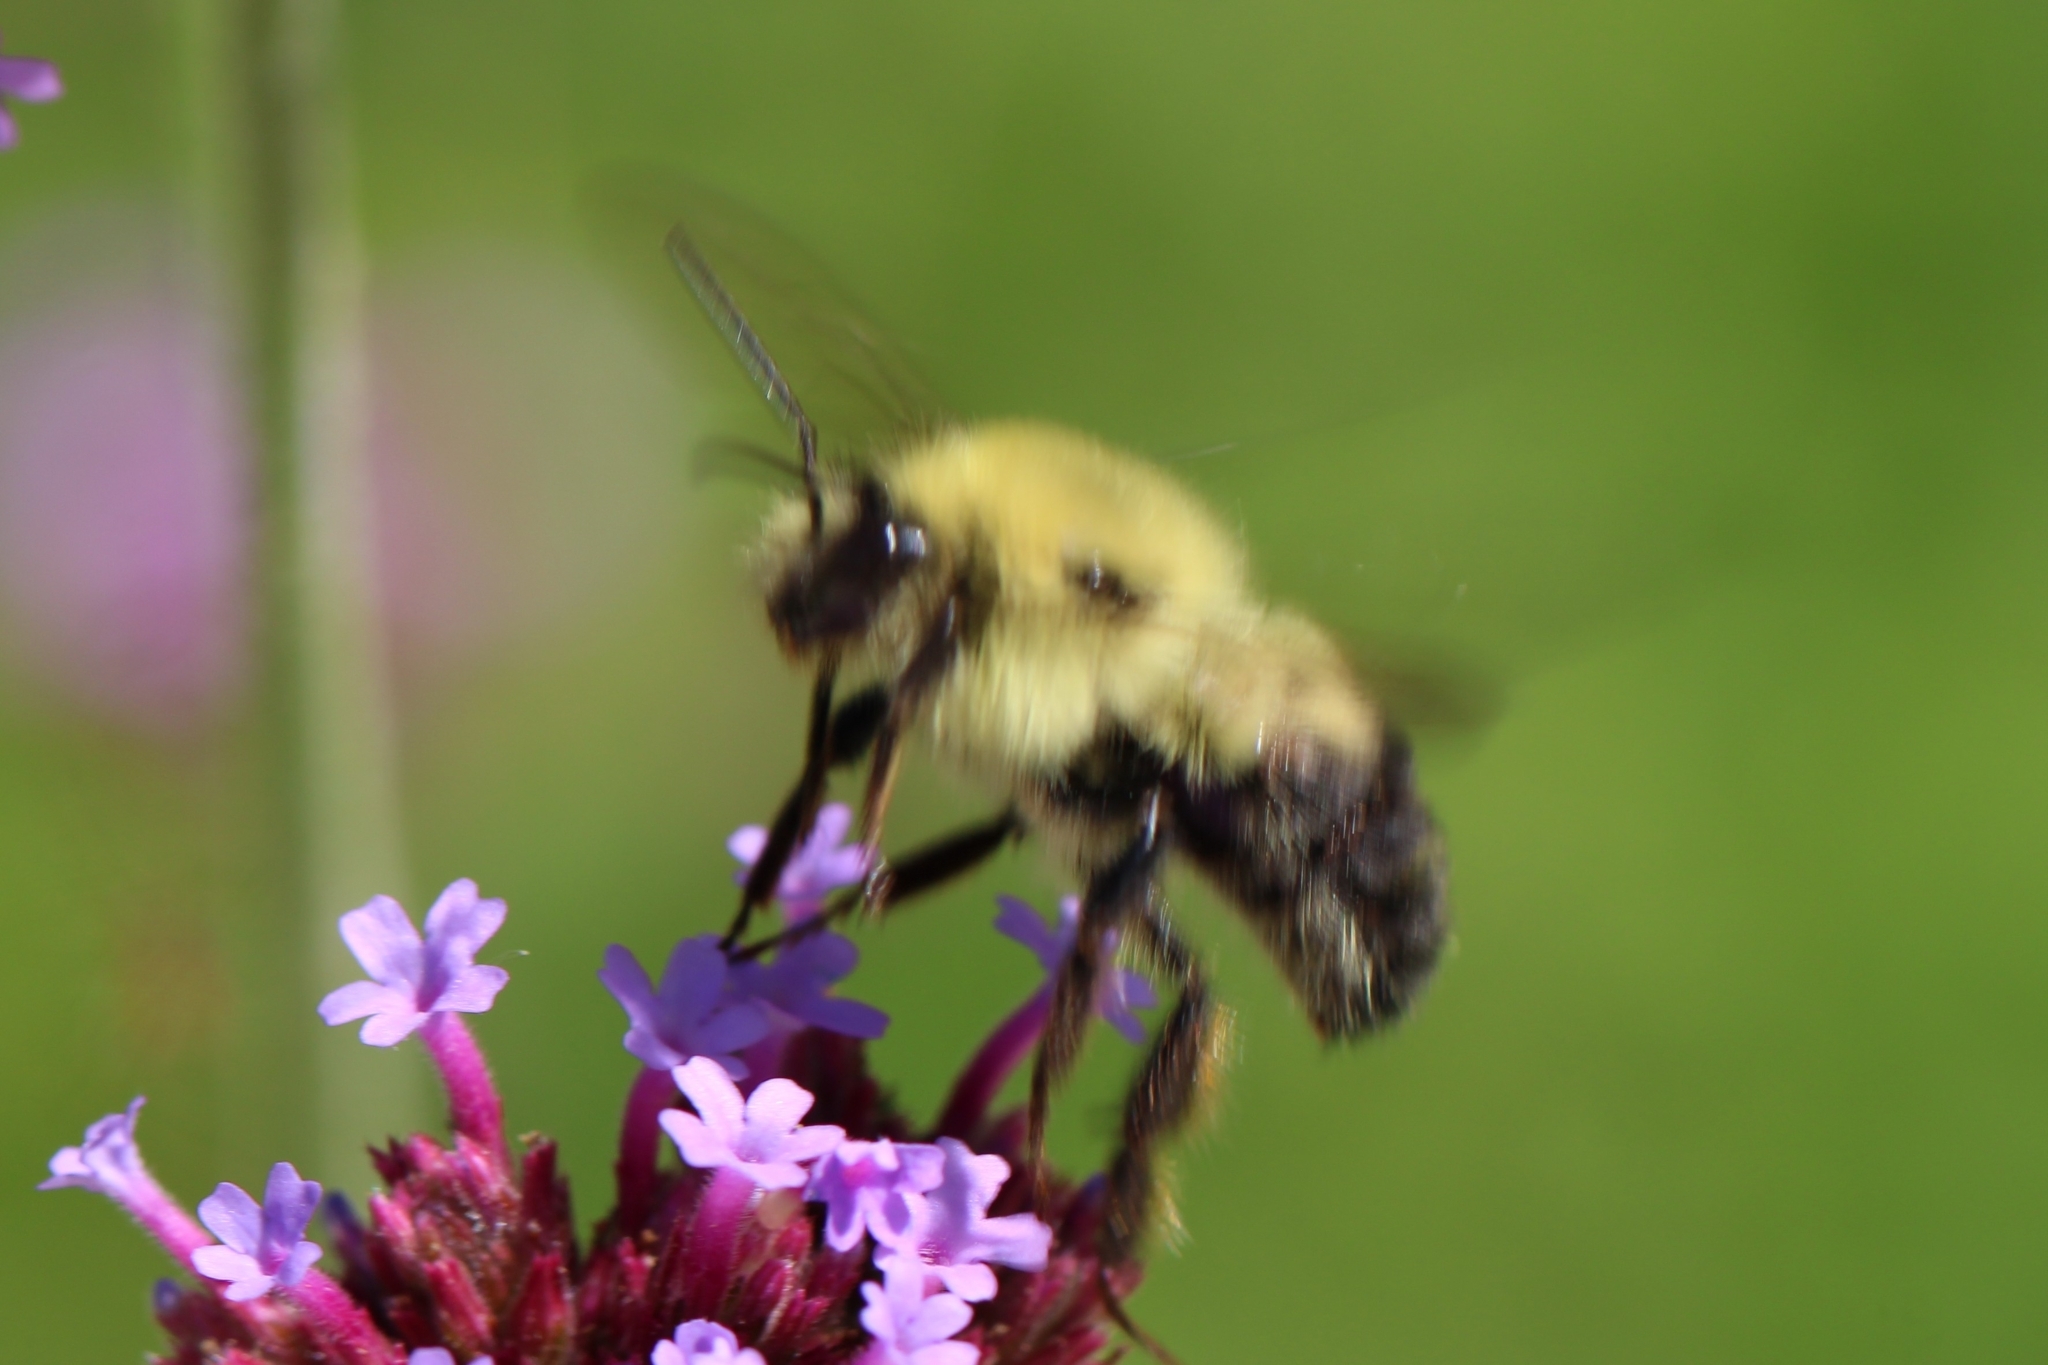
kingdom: Animalia
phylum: Arthropoda
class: Insecta
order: Hymenoptera
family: Apidae
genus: Bombus
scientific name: Bombus bimaculatus
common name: Two-spotted bumble bee
